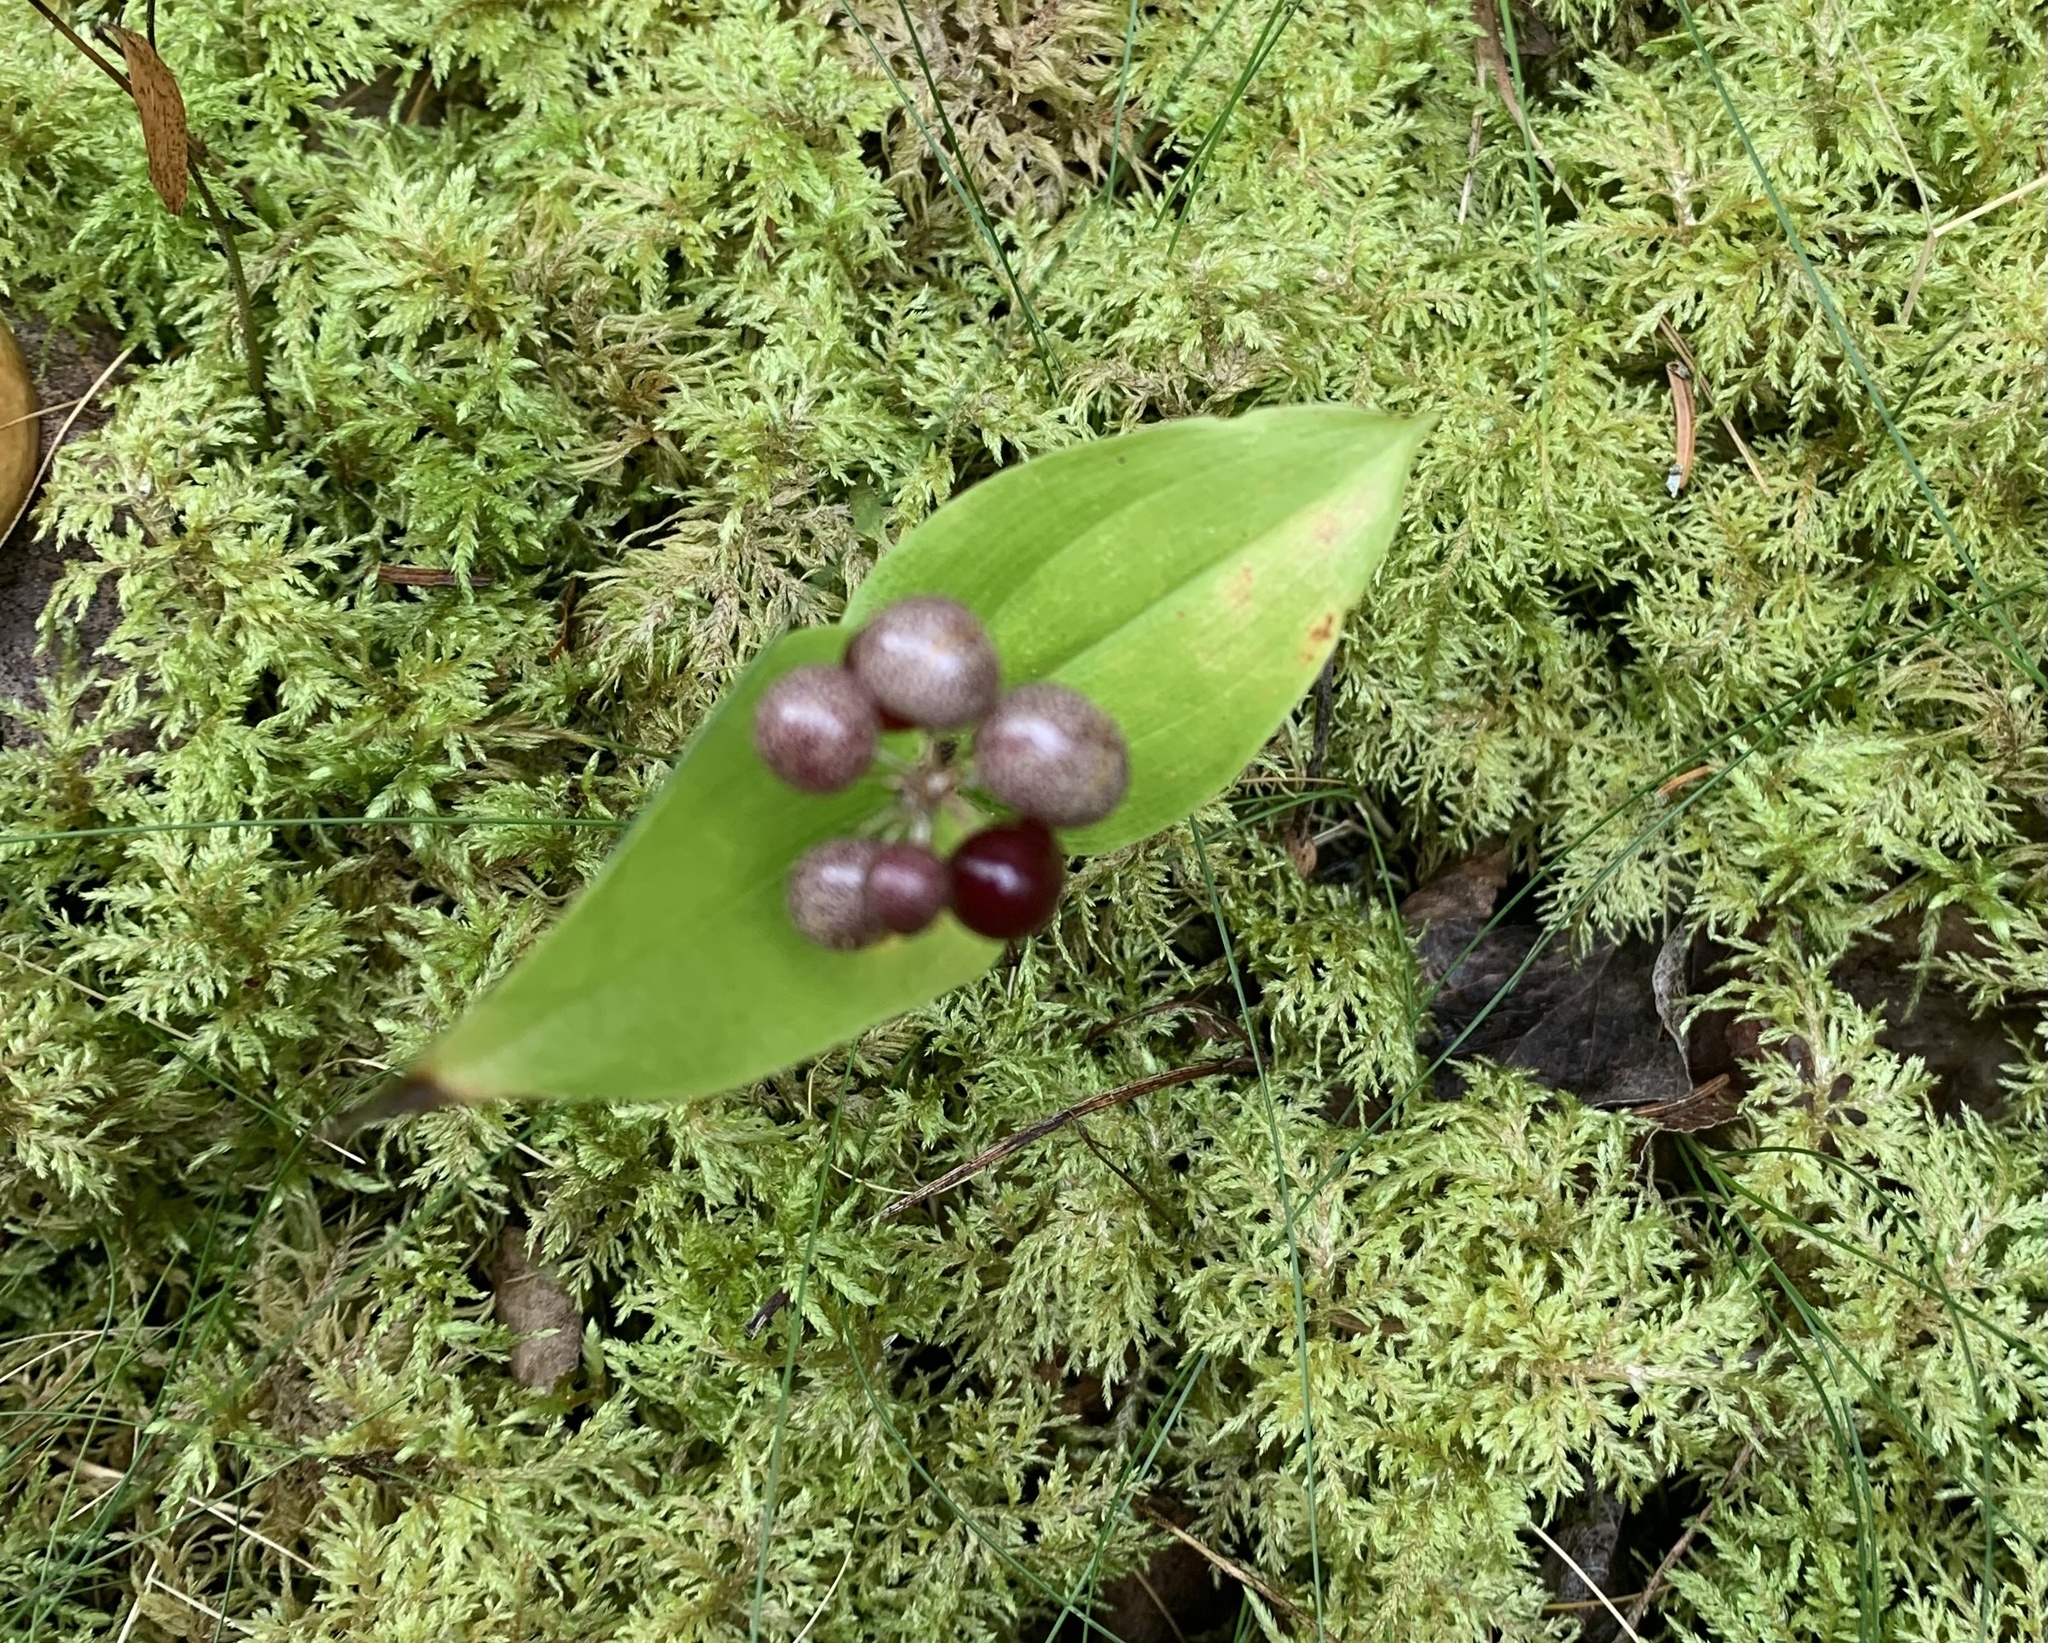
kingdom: Plantae
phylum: Tracheophyta
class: Liliopsida
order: Asparagales
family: Asparagaceae
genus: Maianthemum
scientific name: Maianthemum canadense
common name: False lily-of-the-valley
